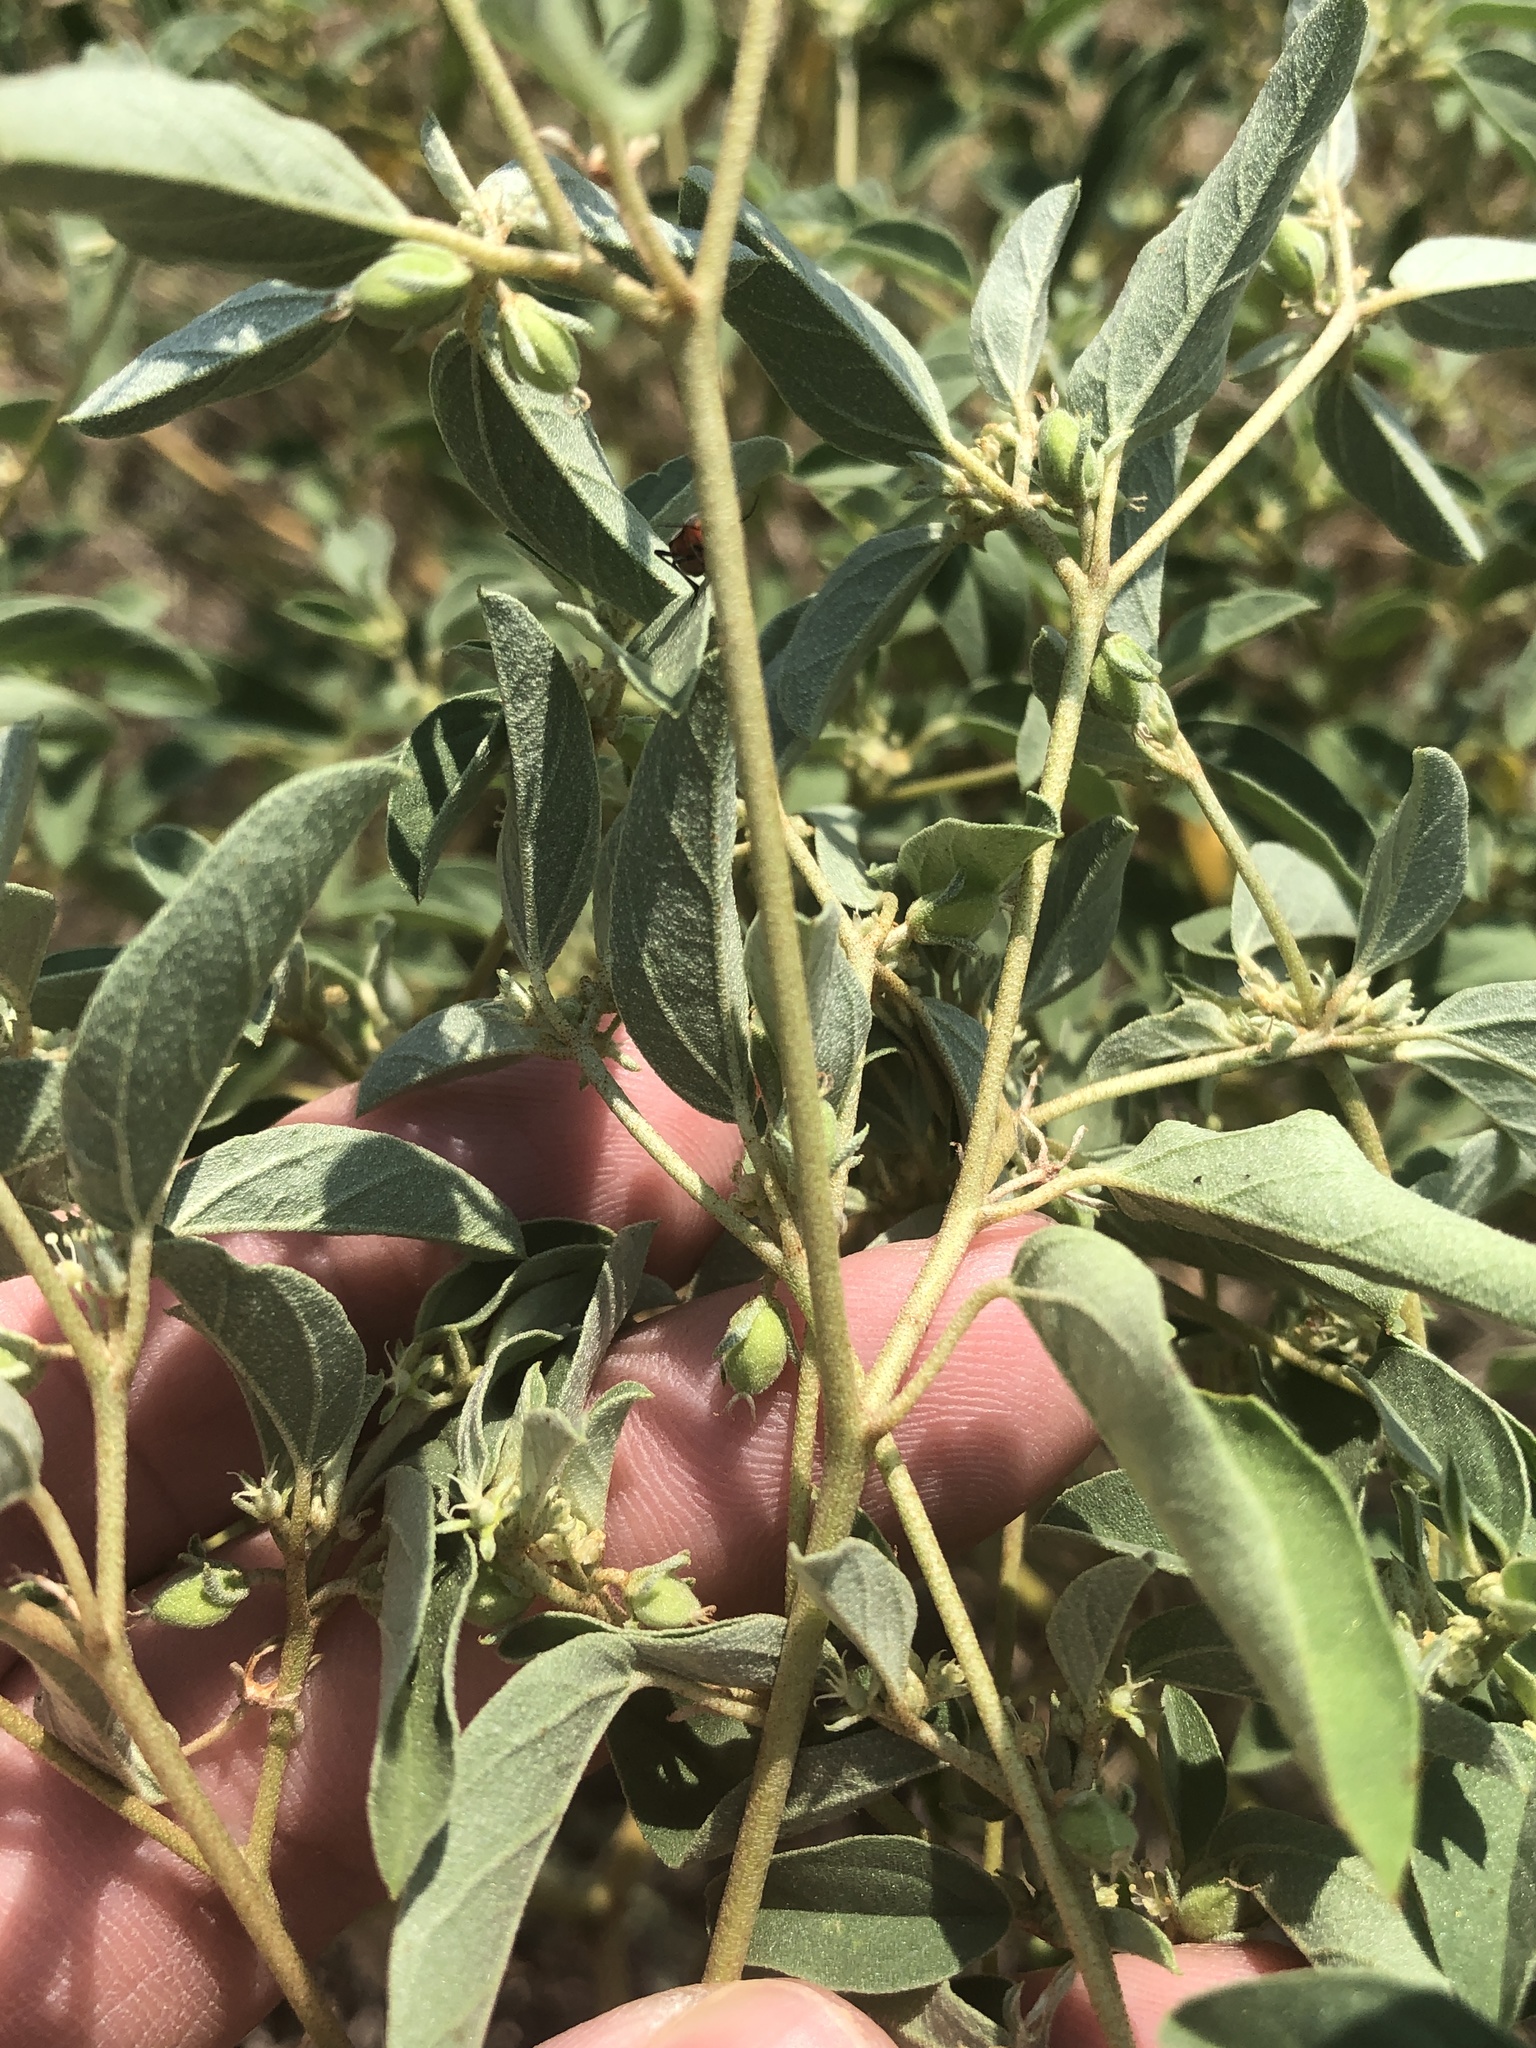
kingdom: Plantae
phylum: Tracheophyta
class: Magnoliopsida
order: Malpighiales
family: Euphorbiaceae
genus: Croton
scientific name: Croton monanthogynus
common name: One-seed croton
